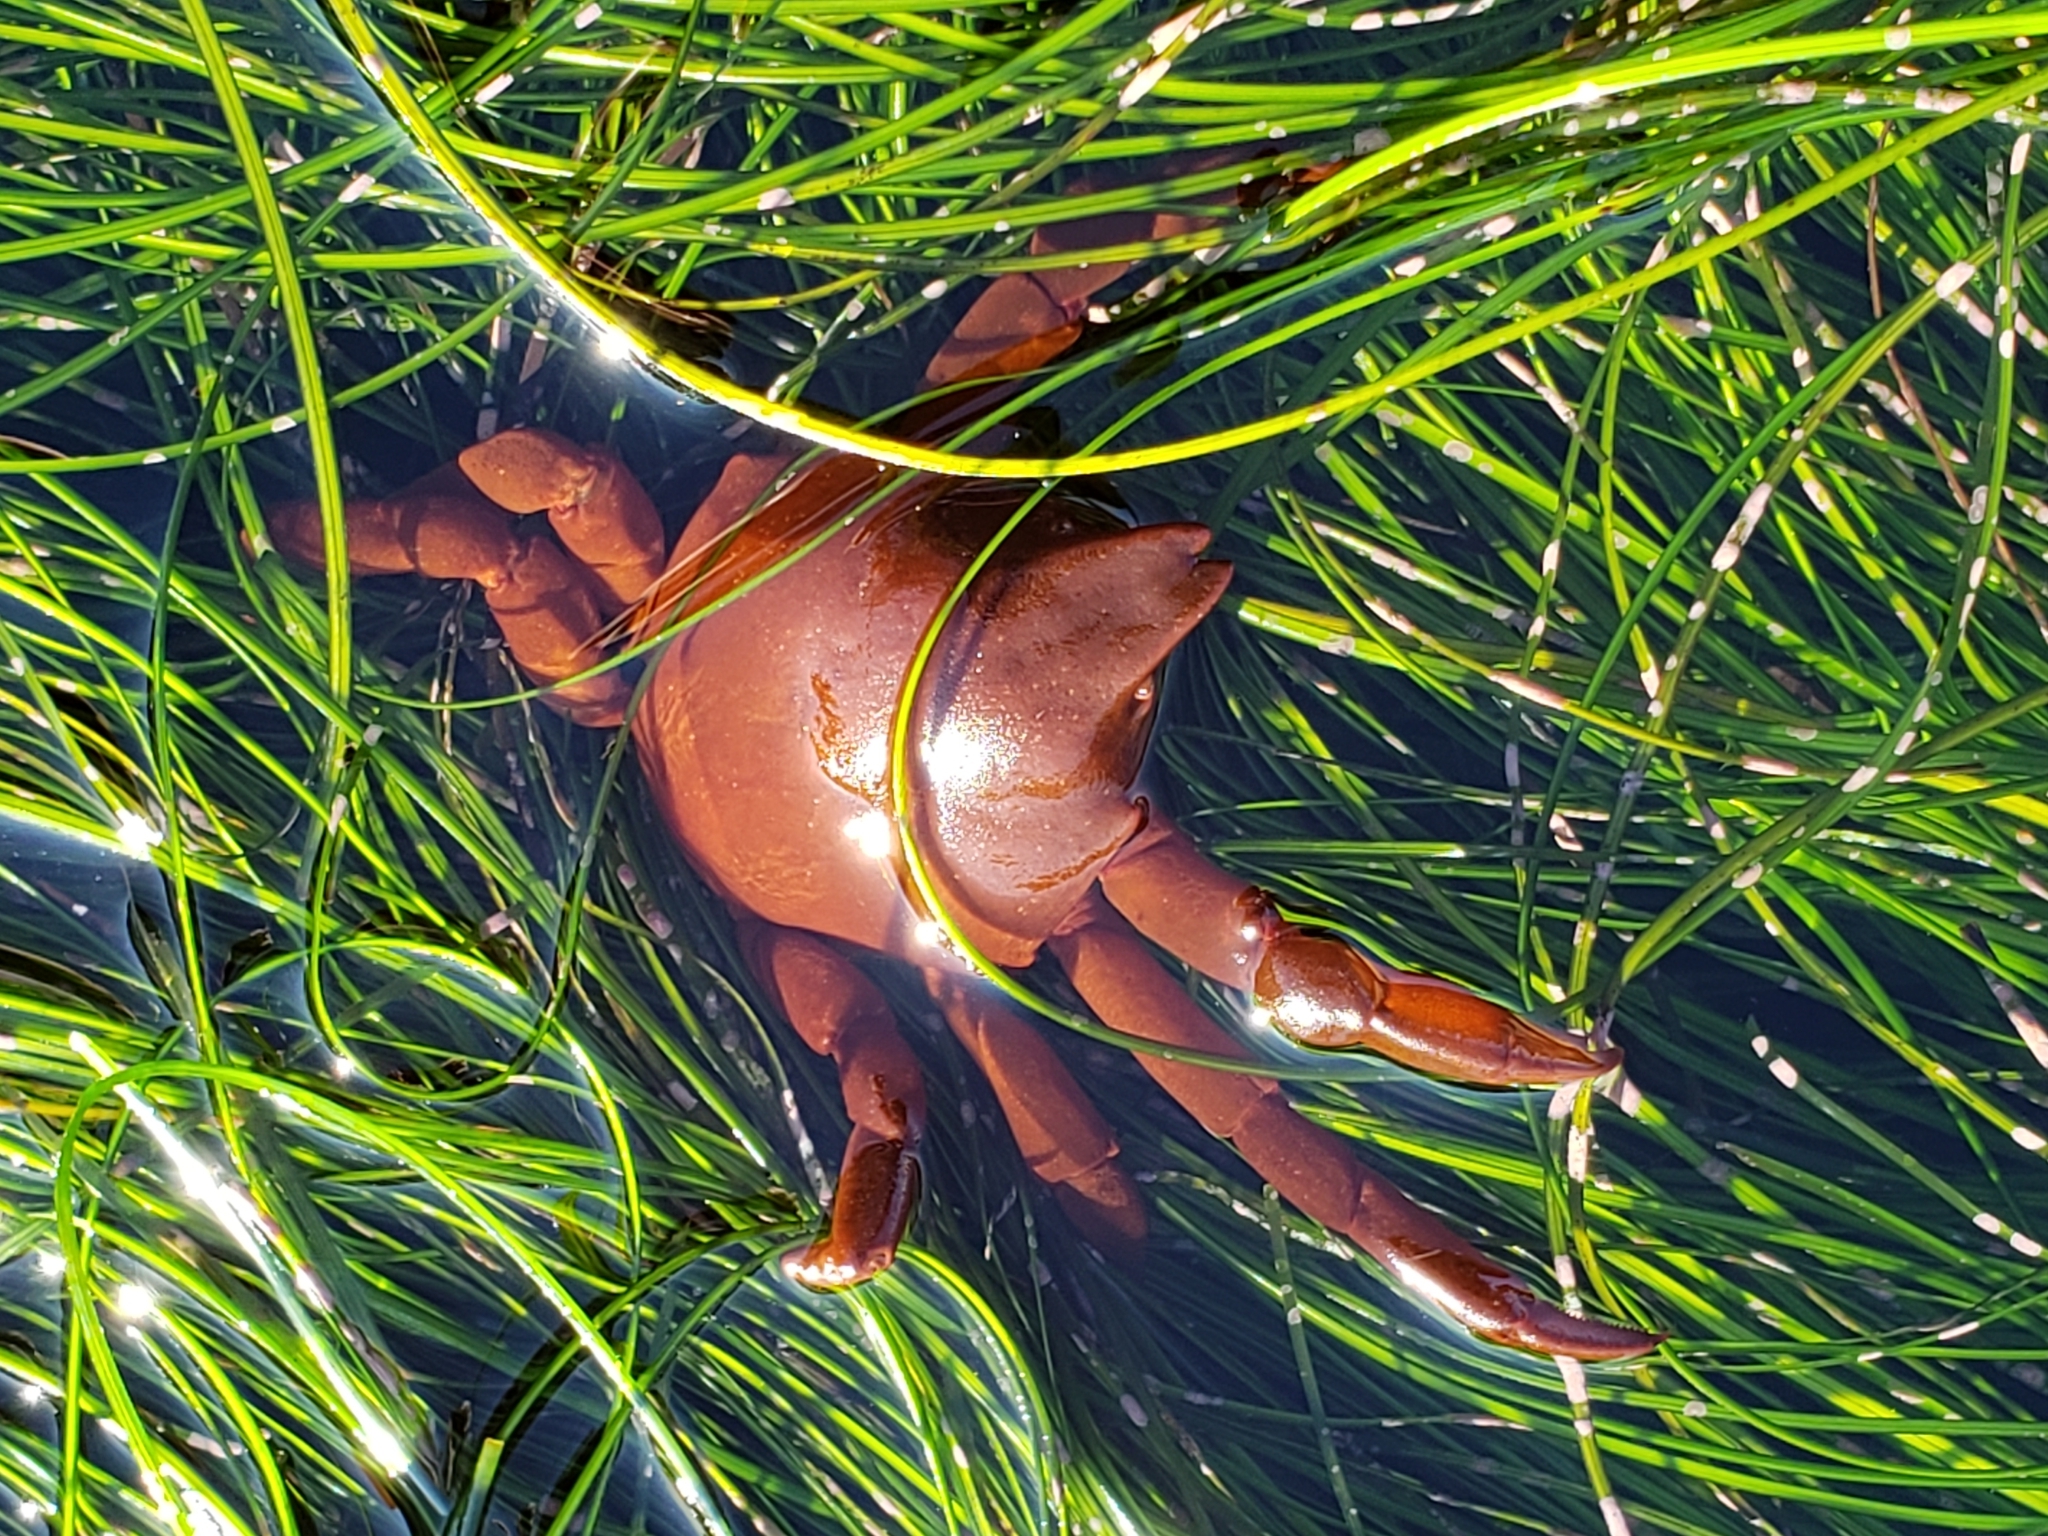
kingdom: Animalia
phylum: Arthropoda
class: Malacostraca
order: Decapoda
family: Epialtidae
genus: Taliepus
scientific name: Taliepus nuttallii
